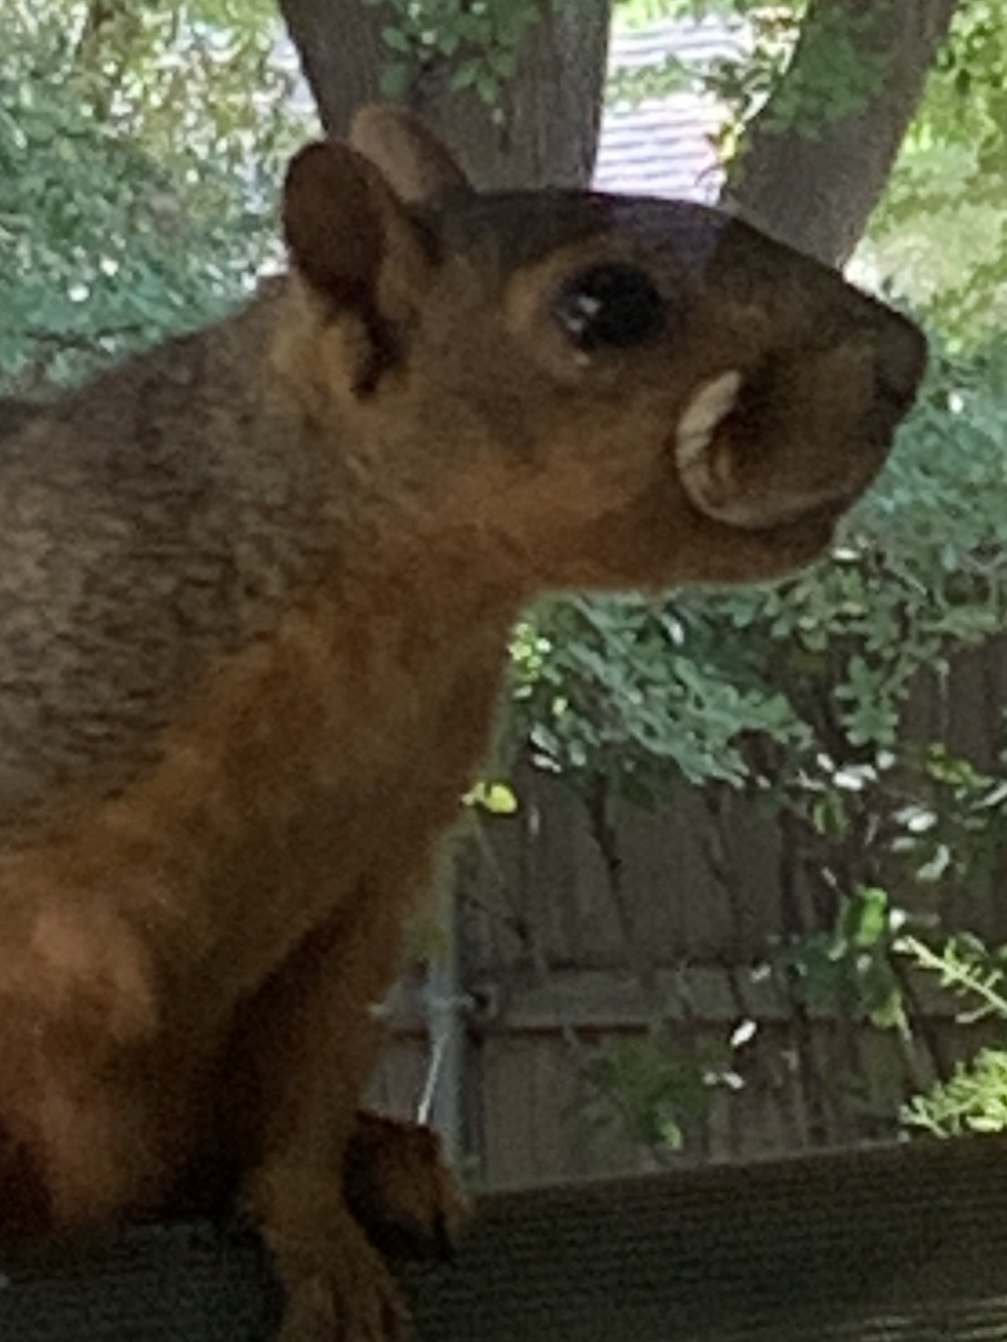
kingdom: Animalia
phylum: Chordata
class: Mammalia
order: Rodentia
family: Sciuridae
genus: Sciurus
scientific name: Sciurus niger
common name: Fox squirrel
